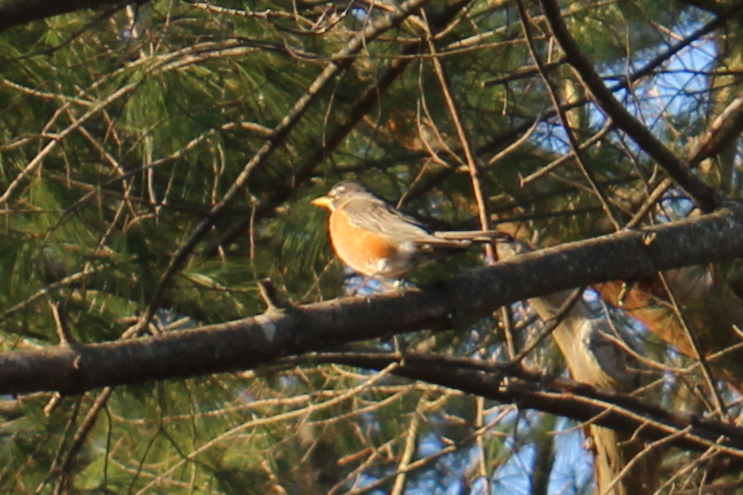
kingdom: Animalia
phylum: Chordata
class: Aves
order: Passeriformes
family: Turdidae
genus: Turdus
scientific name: Turdus migratorius
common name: American robin
